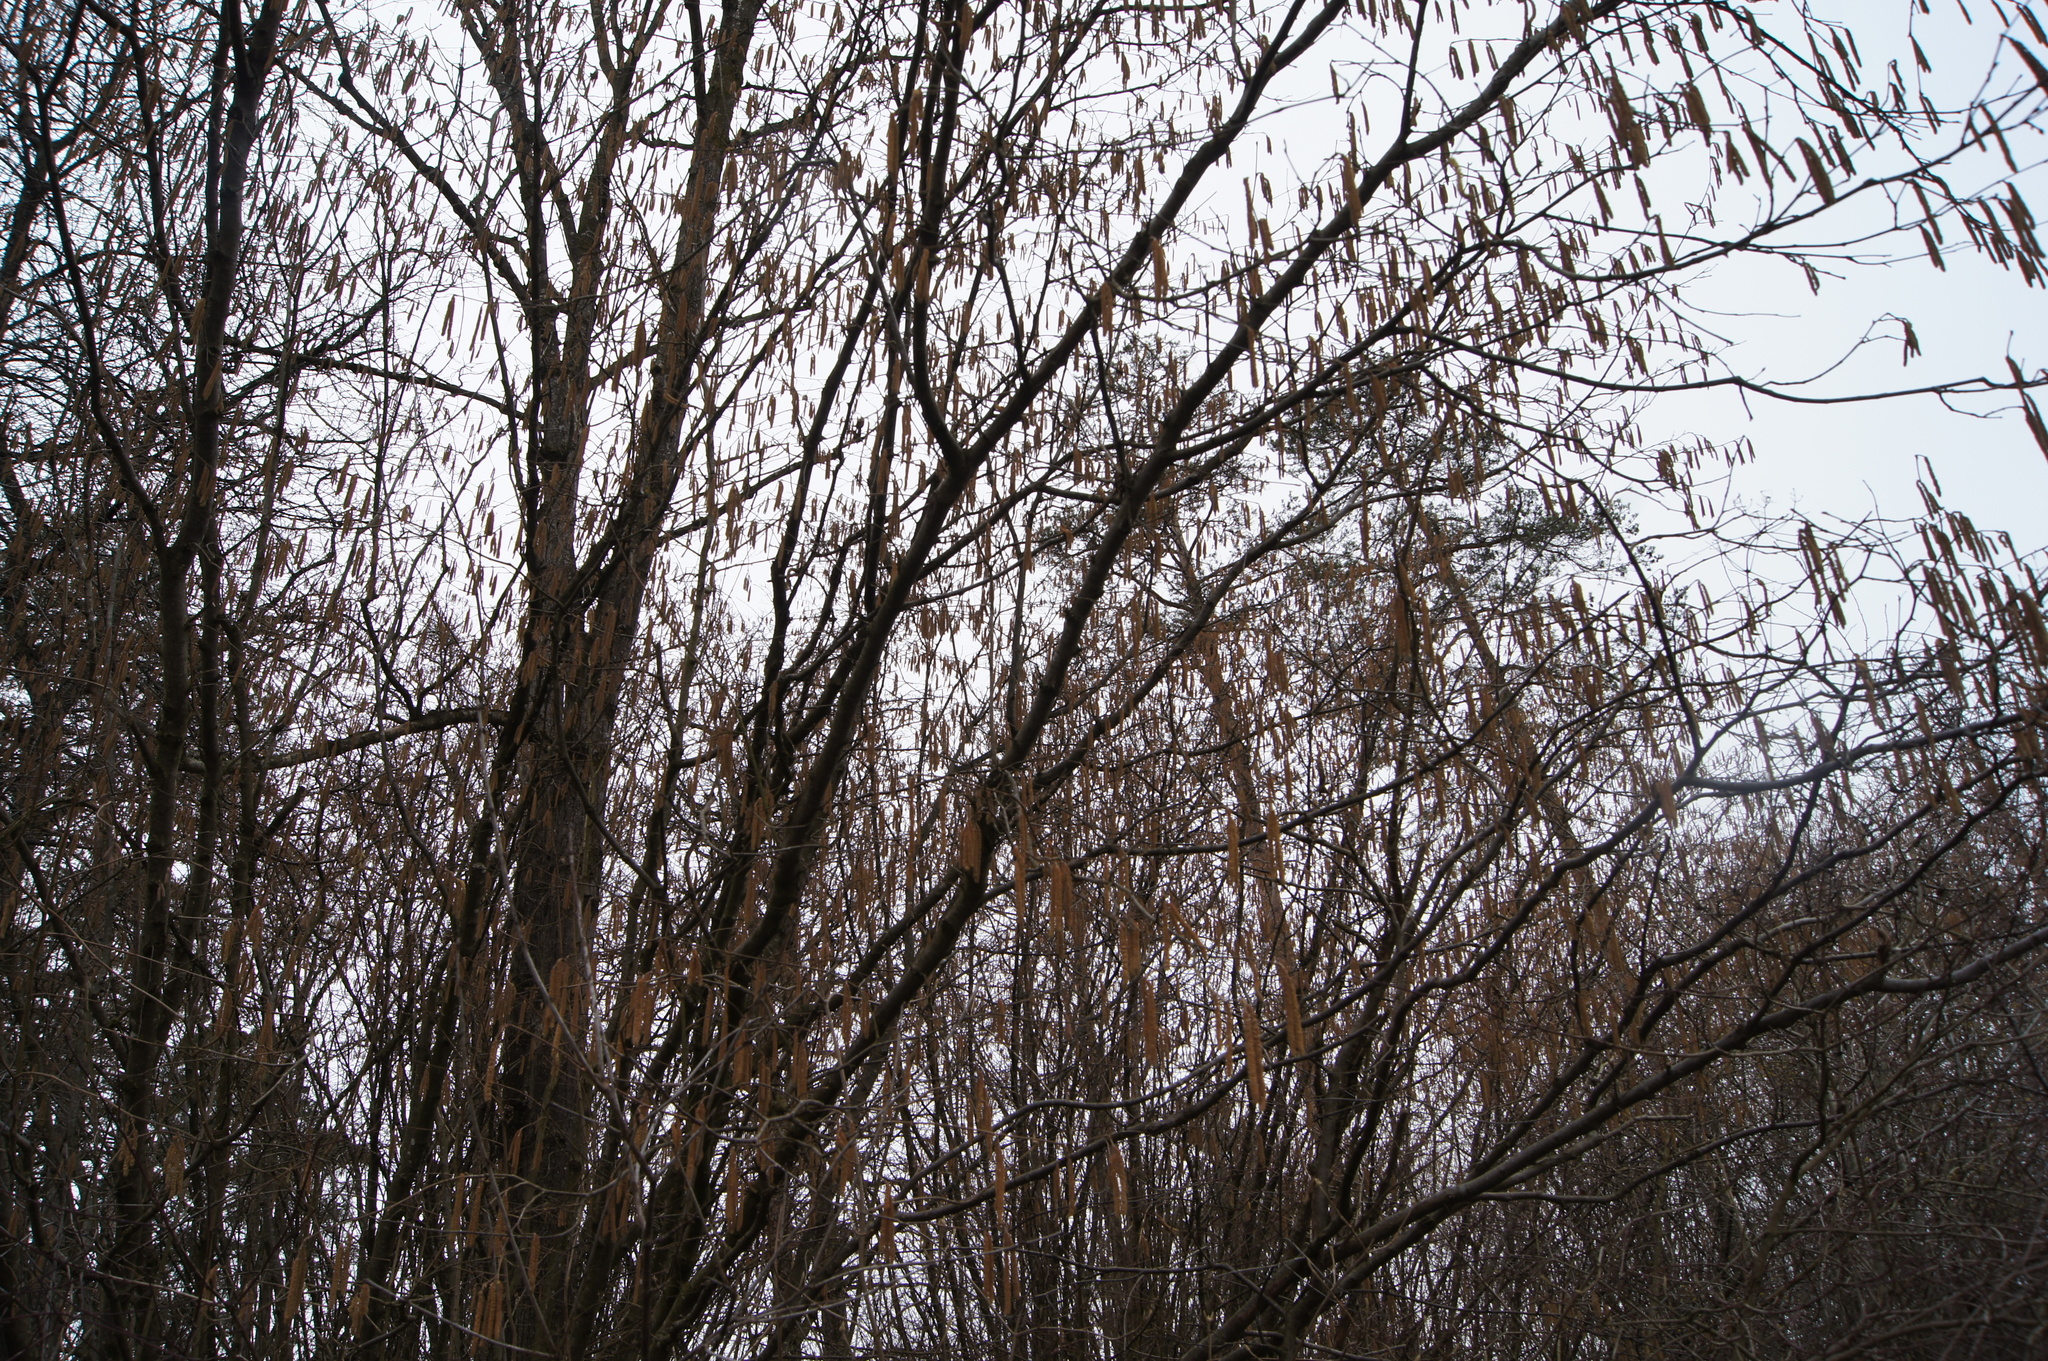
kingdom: Plantae
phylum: Tracheophyta
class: Magnoliopsida
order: Fagales
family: Betulaceae
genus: Corylus
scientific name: Corylus avellana
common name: European hazel
